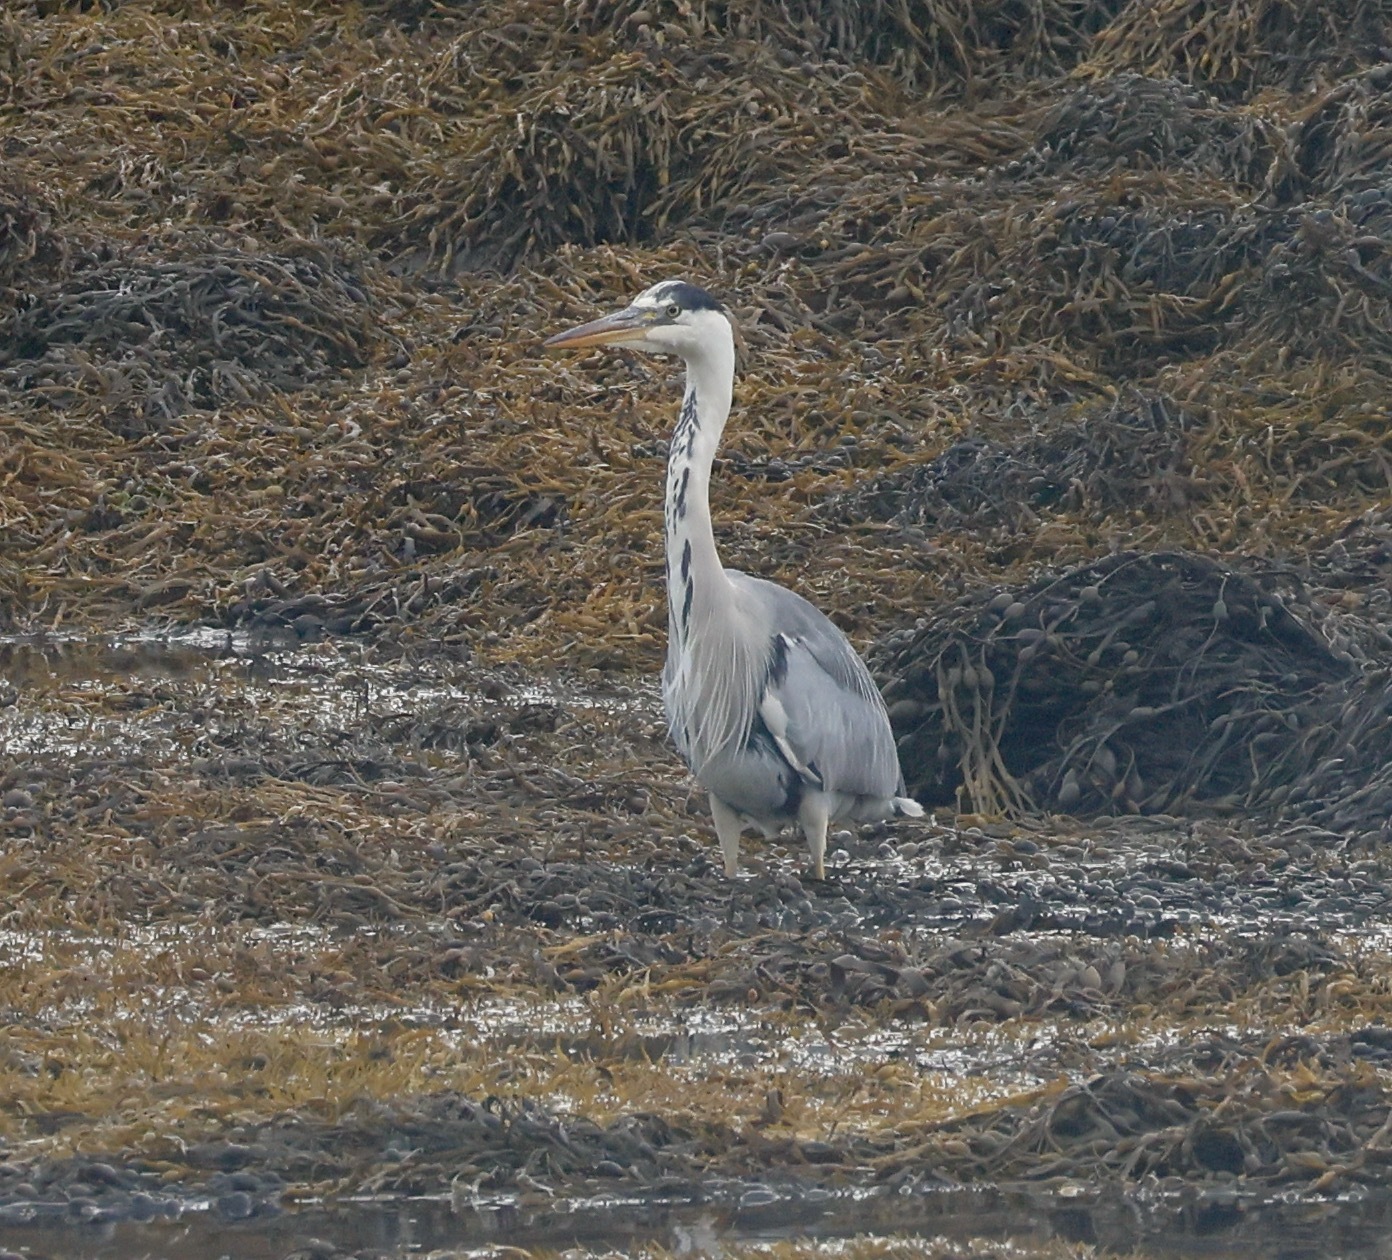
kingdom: Animalia
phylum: Chordata
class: Aves
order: Pelecaniformes
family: Ardeidae
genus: Ardea
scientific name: Ardea cinerea
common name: Grey heron
